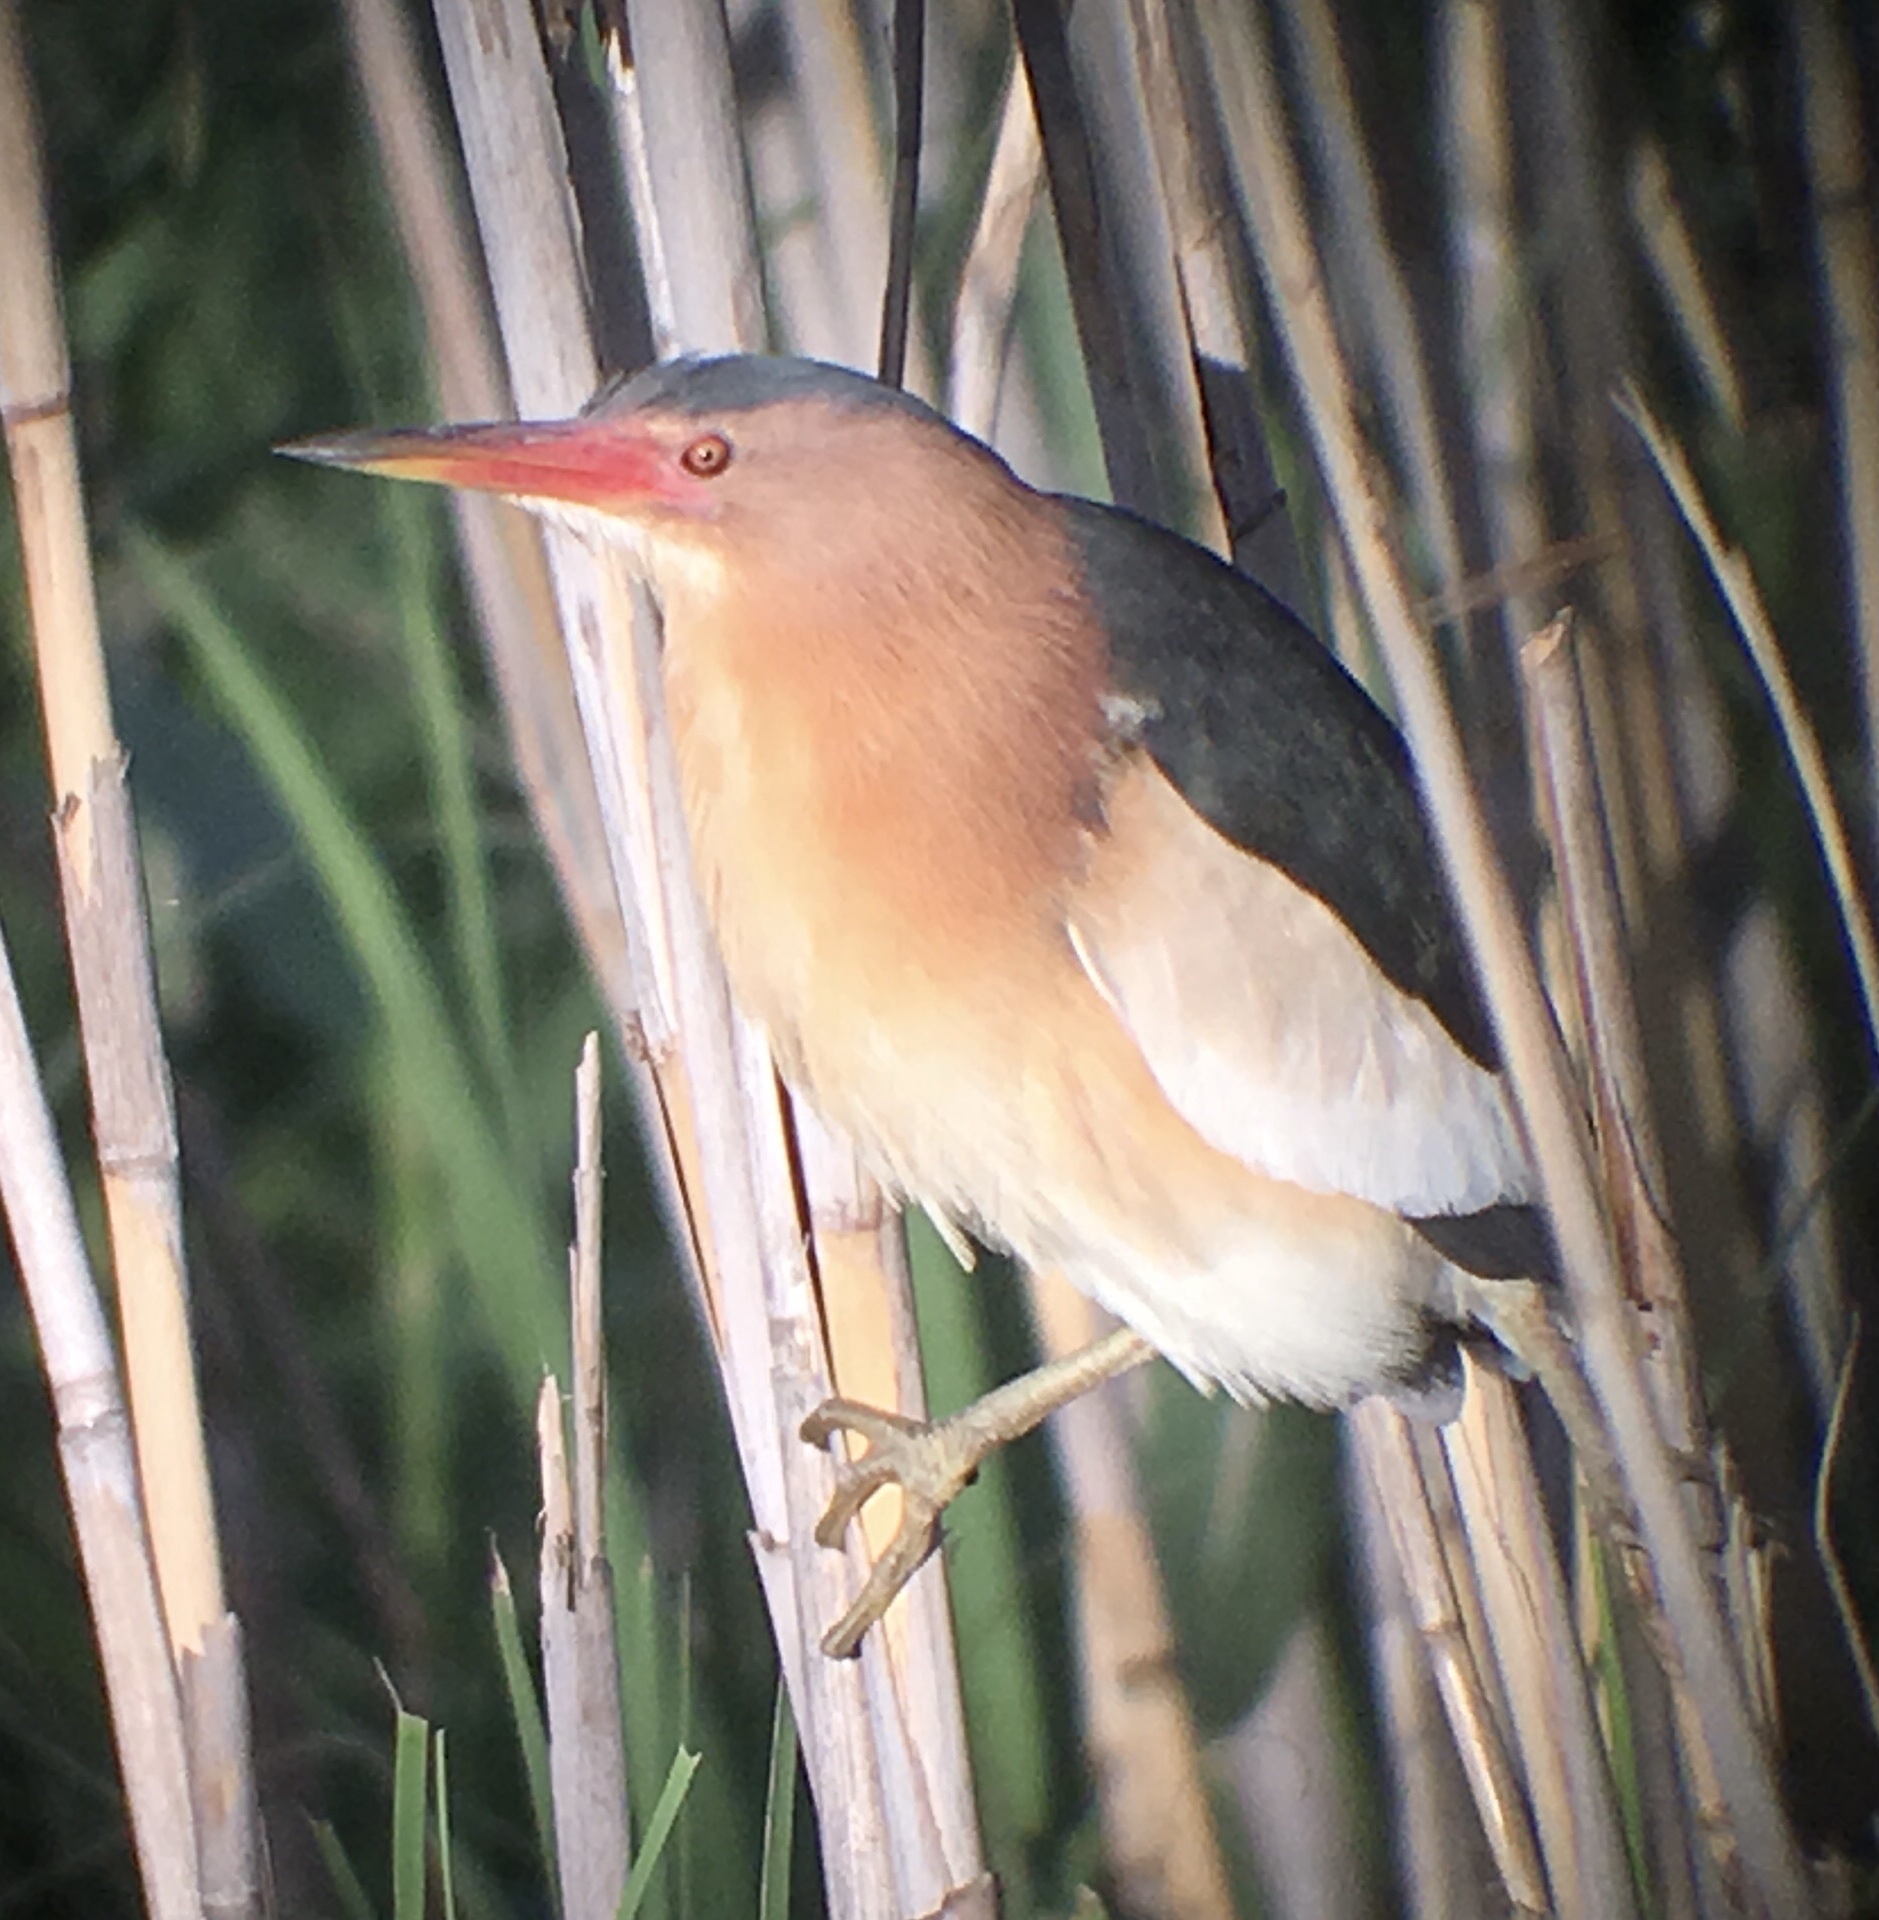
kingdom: Animalia
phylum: Chordata
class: Aves
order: Pelecaniformes
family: Ardeidae
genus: Ixobrychus
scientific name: Ixobrychus minutus
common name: Little bittern
